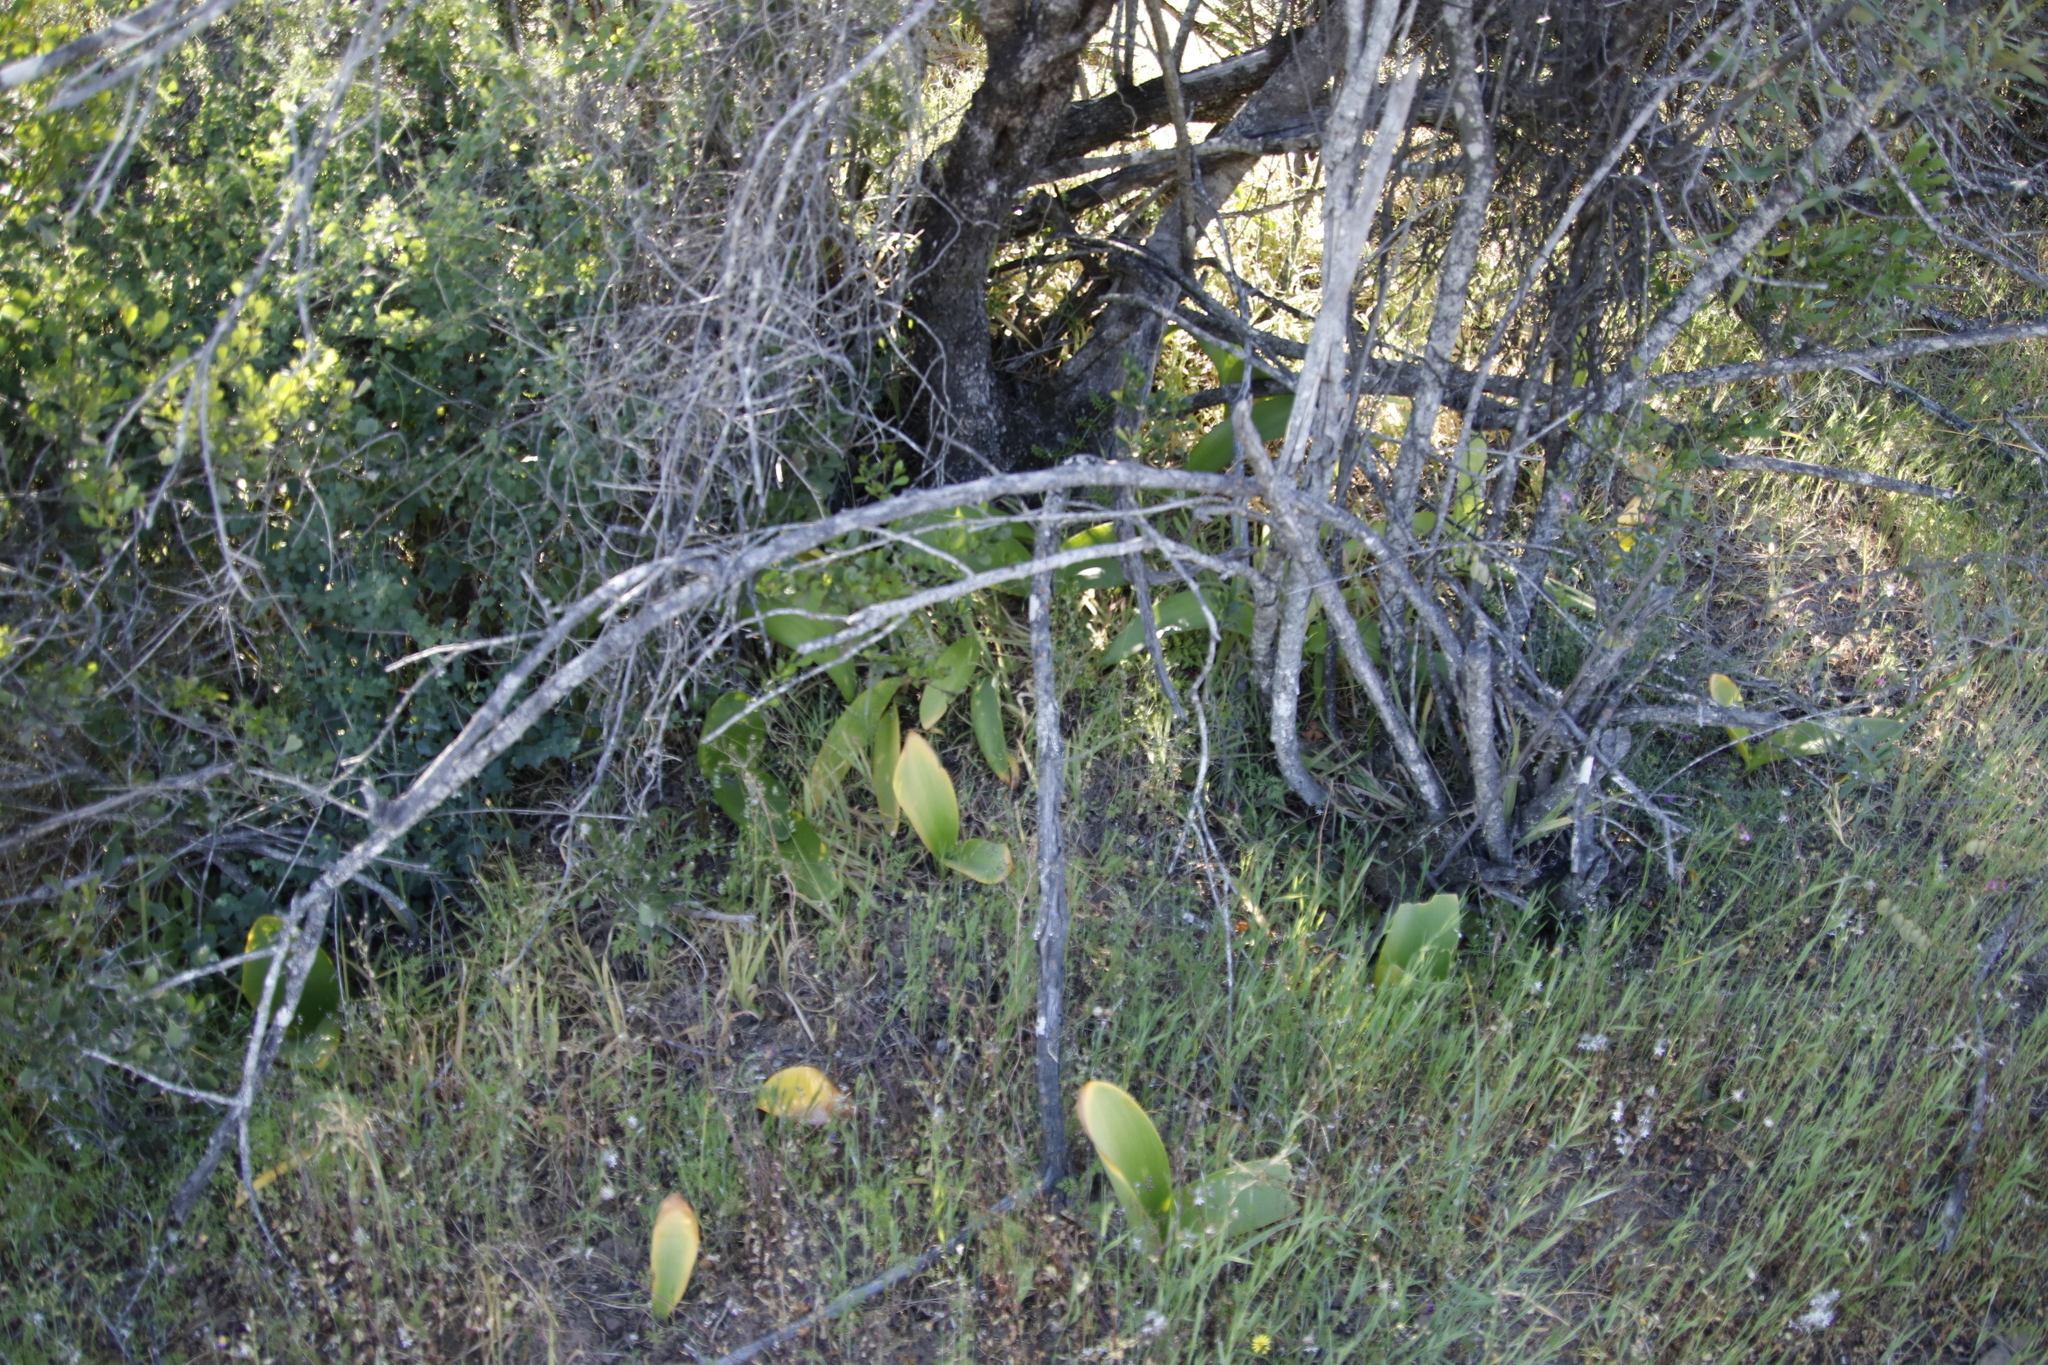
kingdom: Plantae
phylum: Tracheophyta
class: Liliopsida
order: Asparagales
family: Amaryllidaceae
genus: Haemanthus
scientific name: Haemanthus coccineus
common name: Cape-tulip
